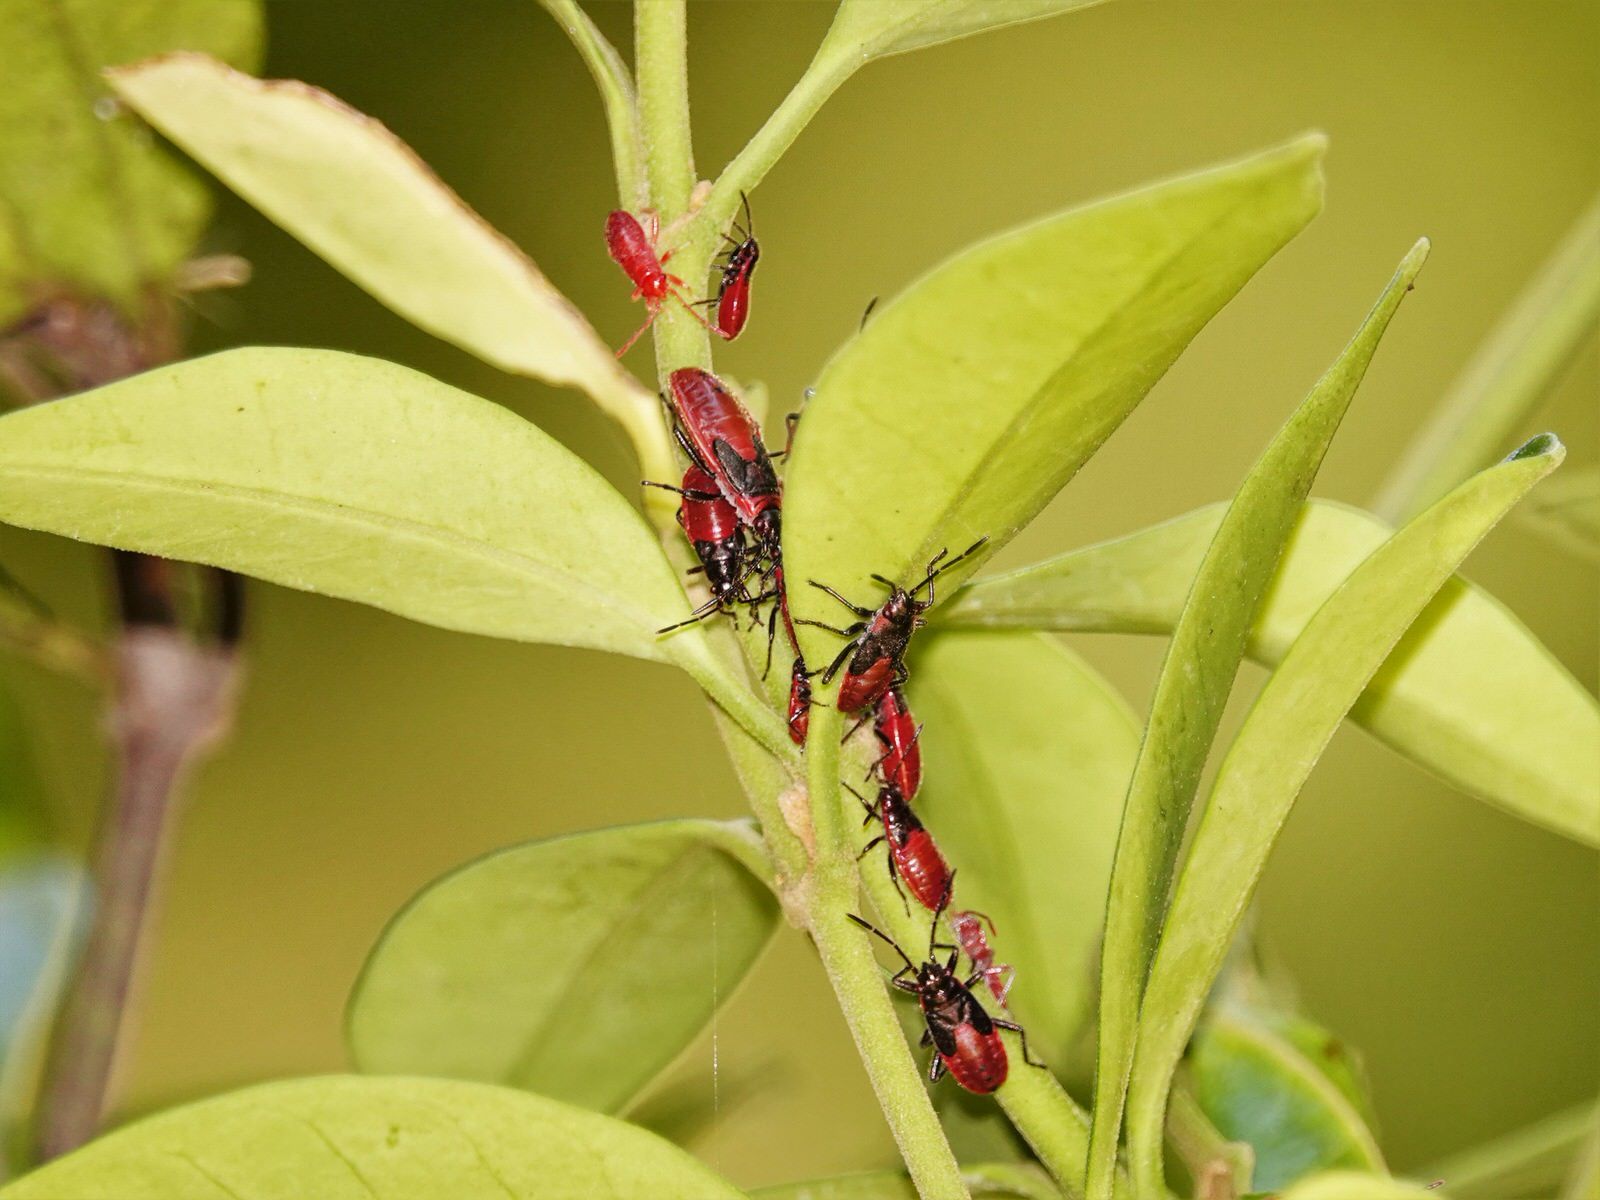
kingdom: Animalia
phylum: Arthropoda
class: Insecta
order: Hemiptera
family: Lygaeidae
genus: Arocatus
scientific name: Arocatus rusticus
